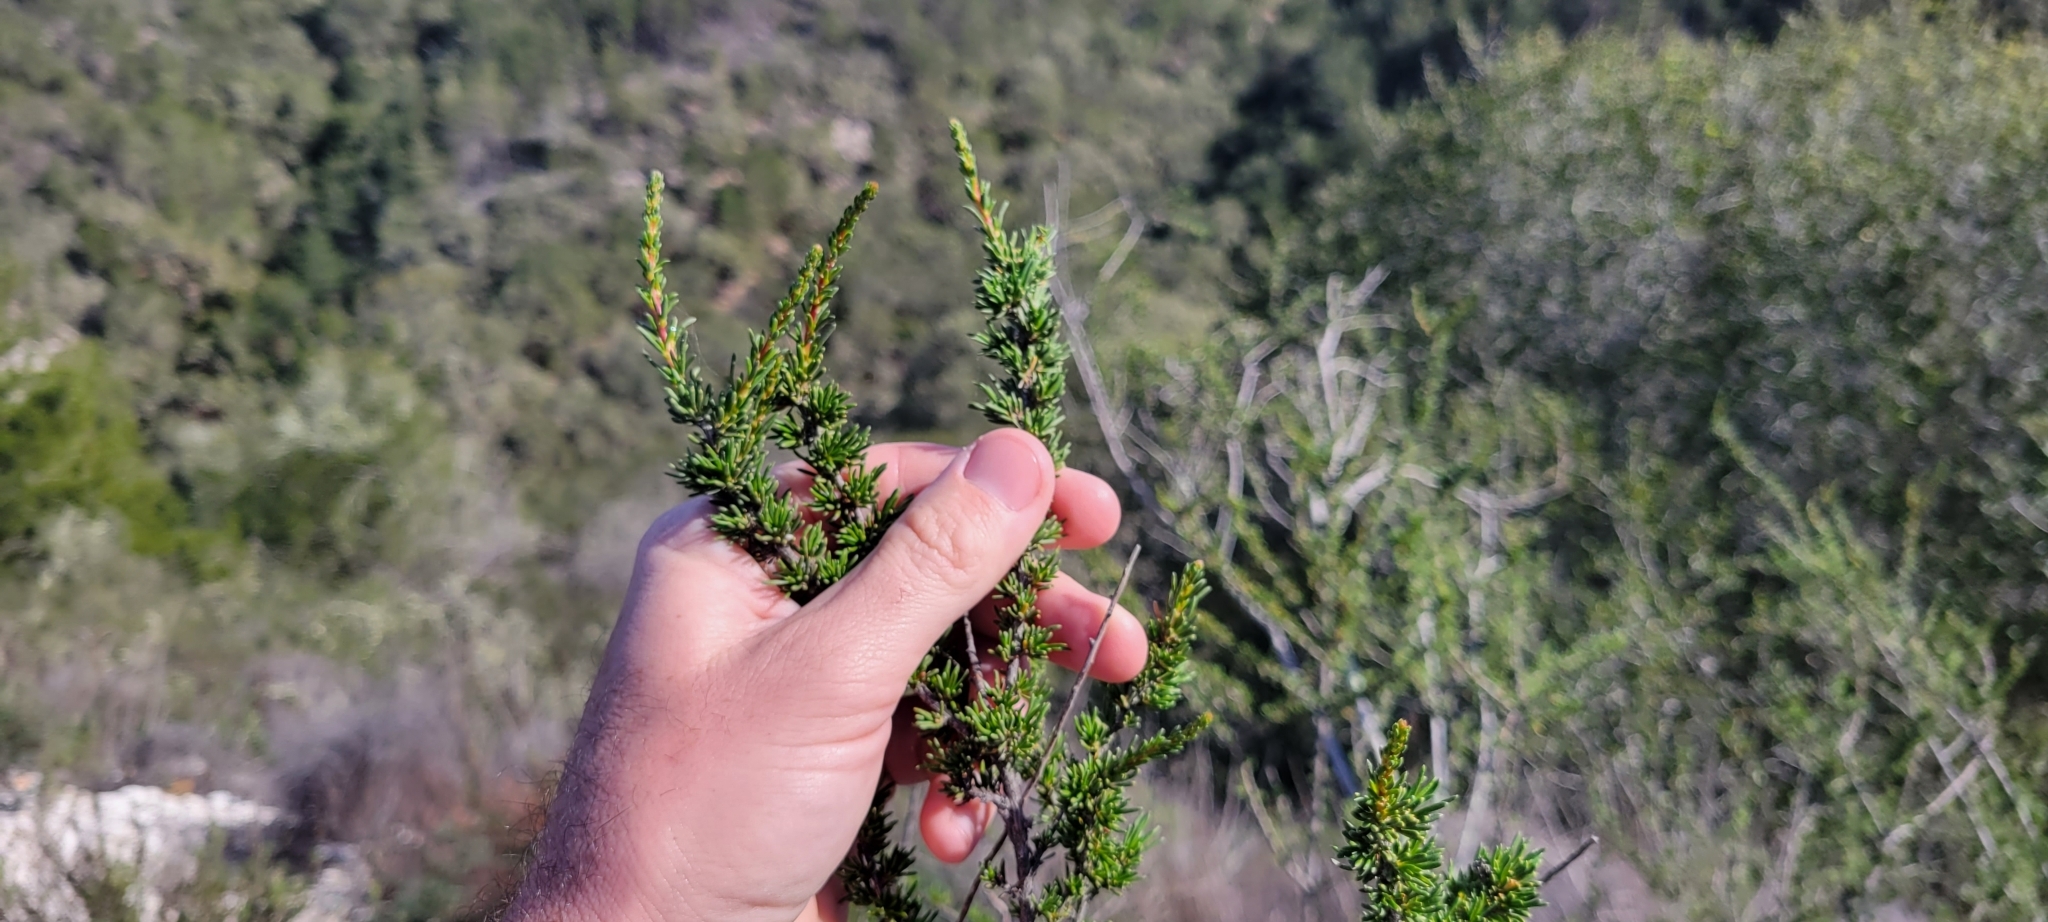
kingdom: Plantae
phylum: Tracheophyta
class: Magnoliopsida
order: Rosales
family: Rosaceae
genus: Adenostoma
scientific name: Adenostoma fasciculatum
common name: Chamise
